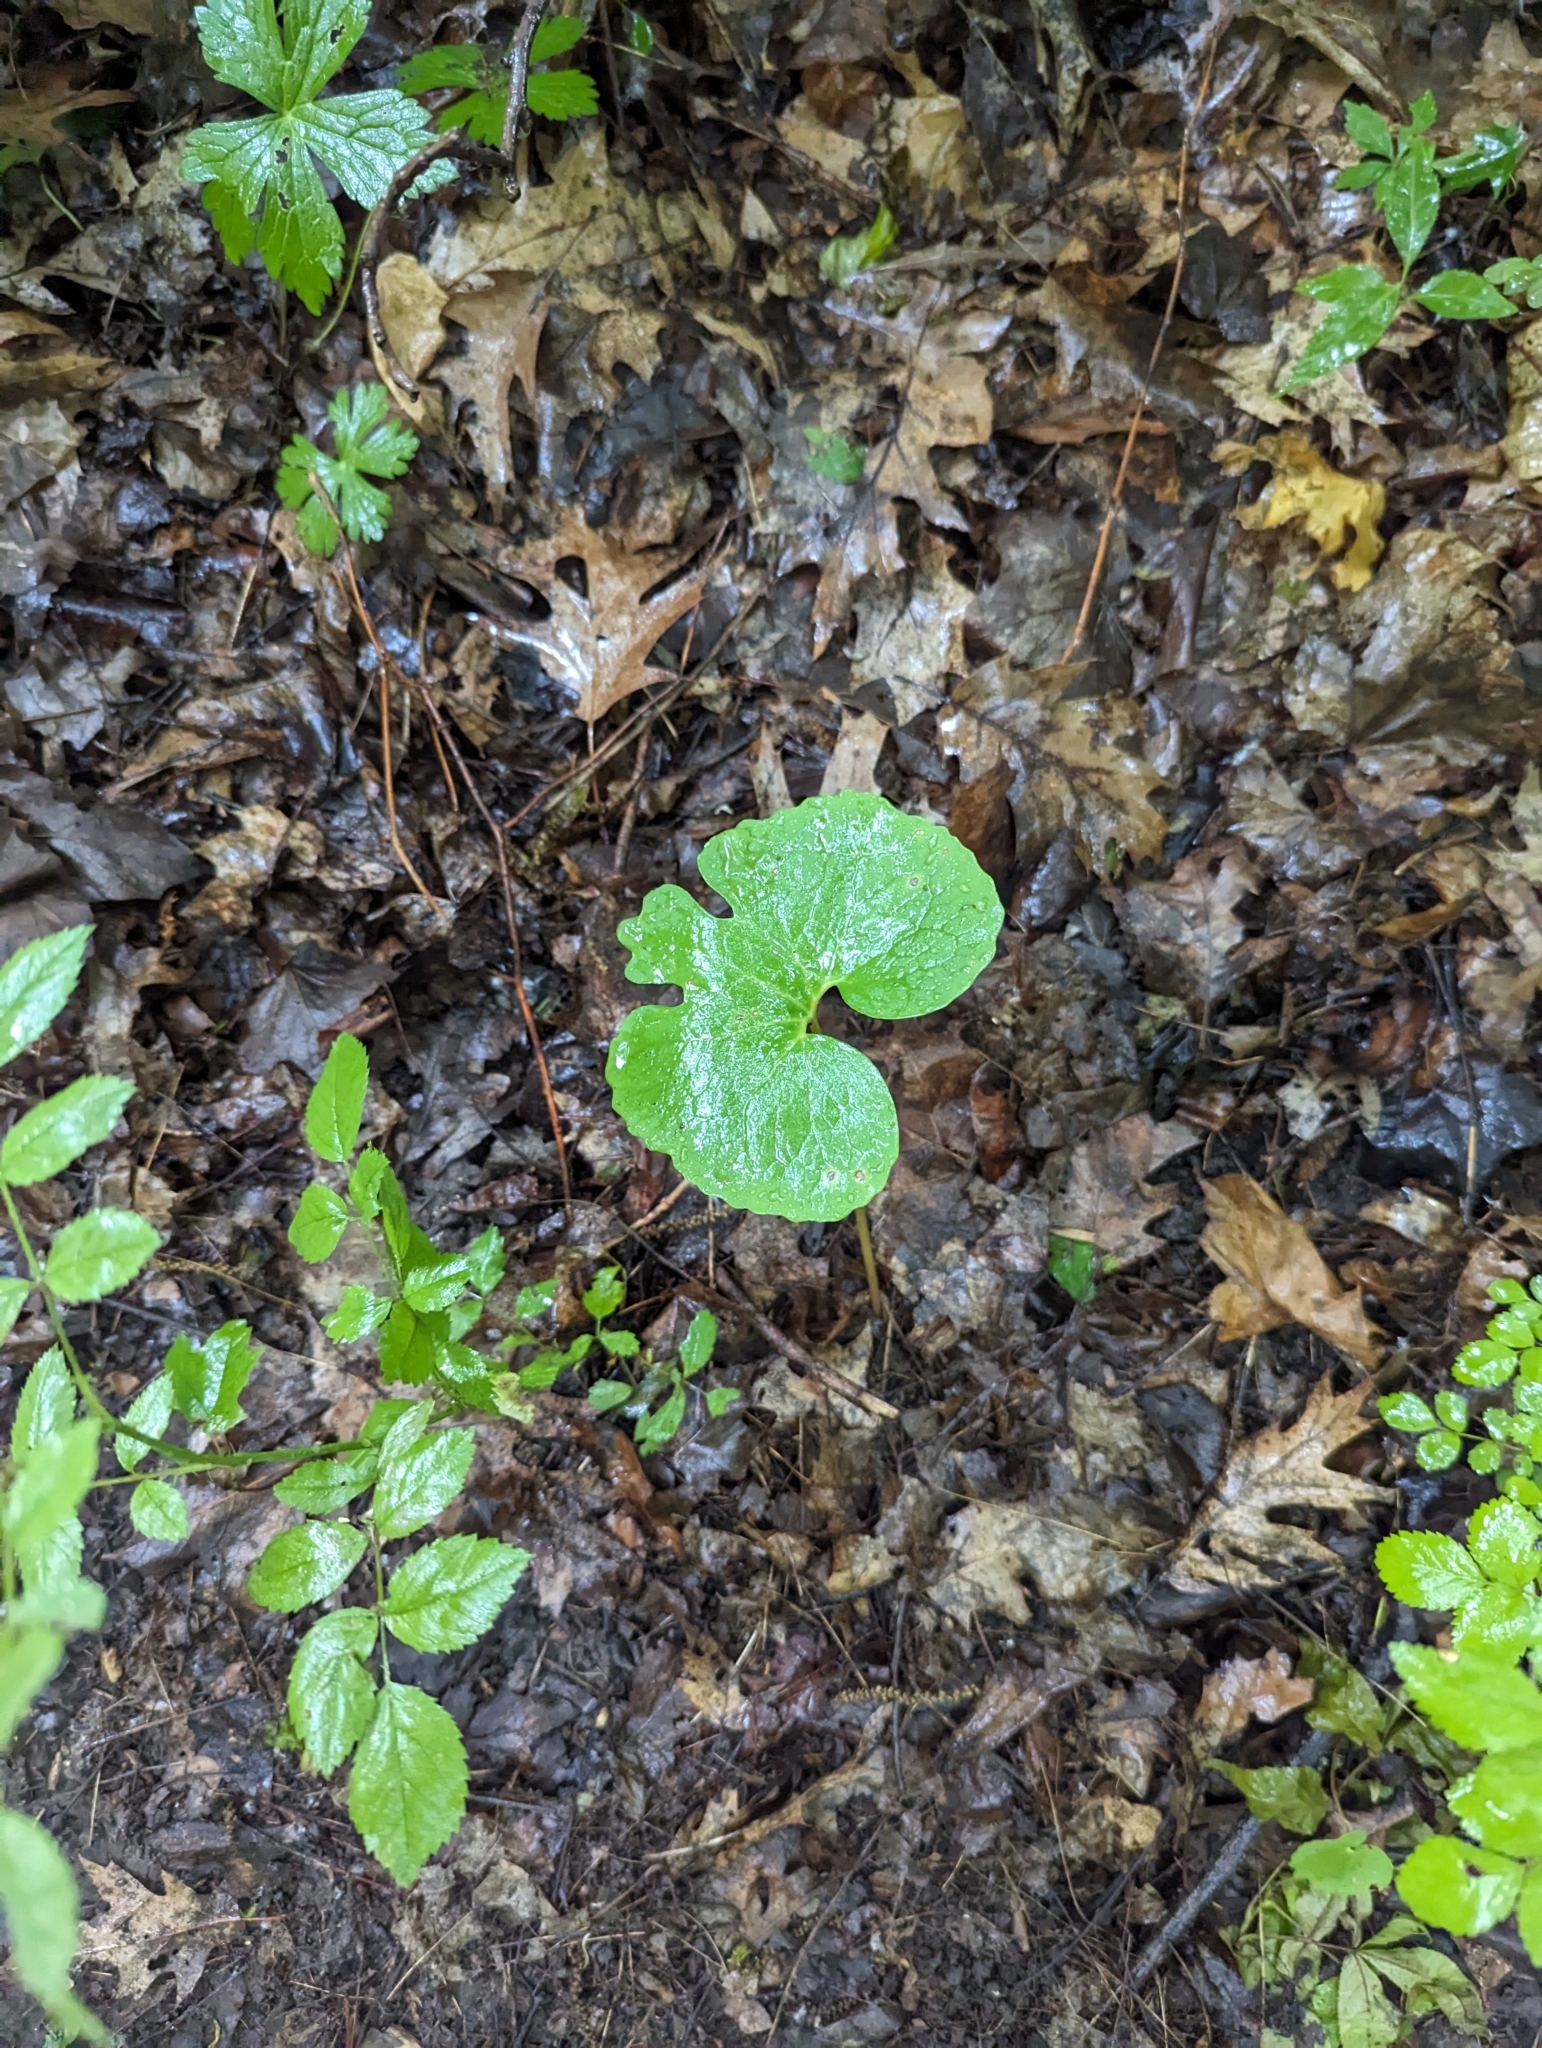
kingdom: Plantae
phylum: Tracheophyta
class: Magnoliopsida
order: Ranunculales
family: Papaveraceae
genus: Sanguinaria
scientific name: Sanguinaria canadensis
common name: Bloodroot
